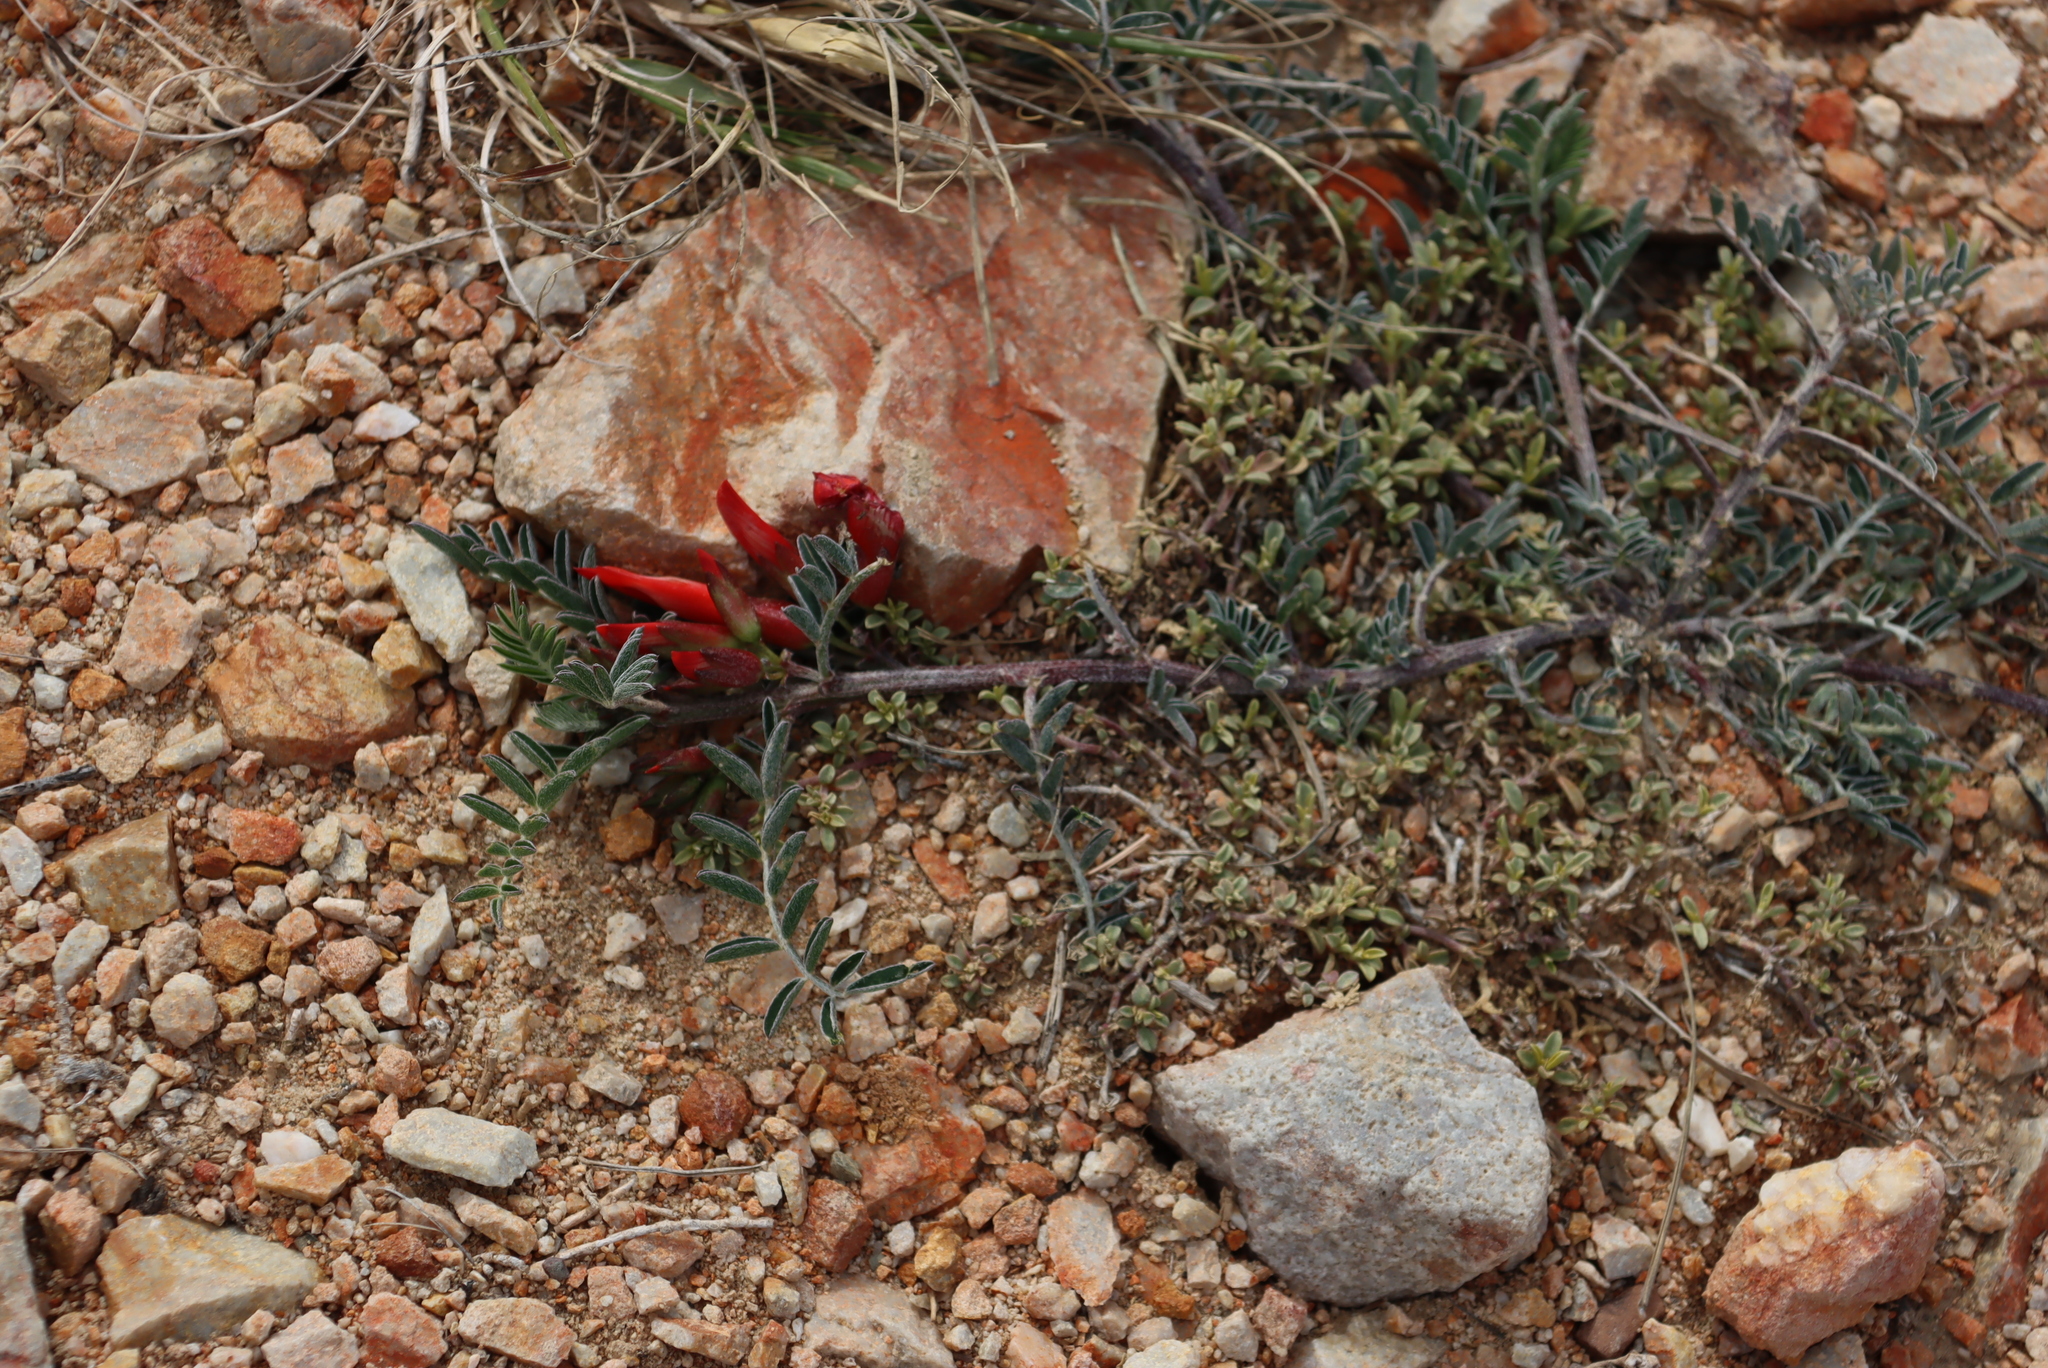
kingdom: Plantae
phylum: Tracheophyta
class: Magnoliopsida
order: Fabales
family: Fabaceae
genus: Lessertia
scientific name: Lessertia frutescens
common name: Balloon-pea
